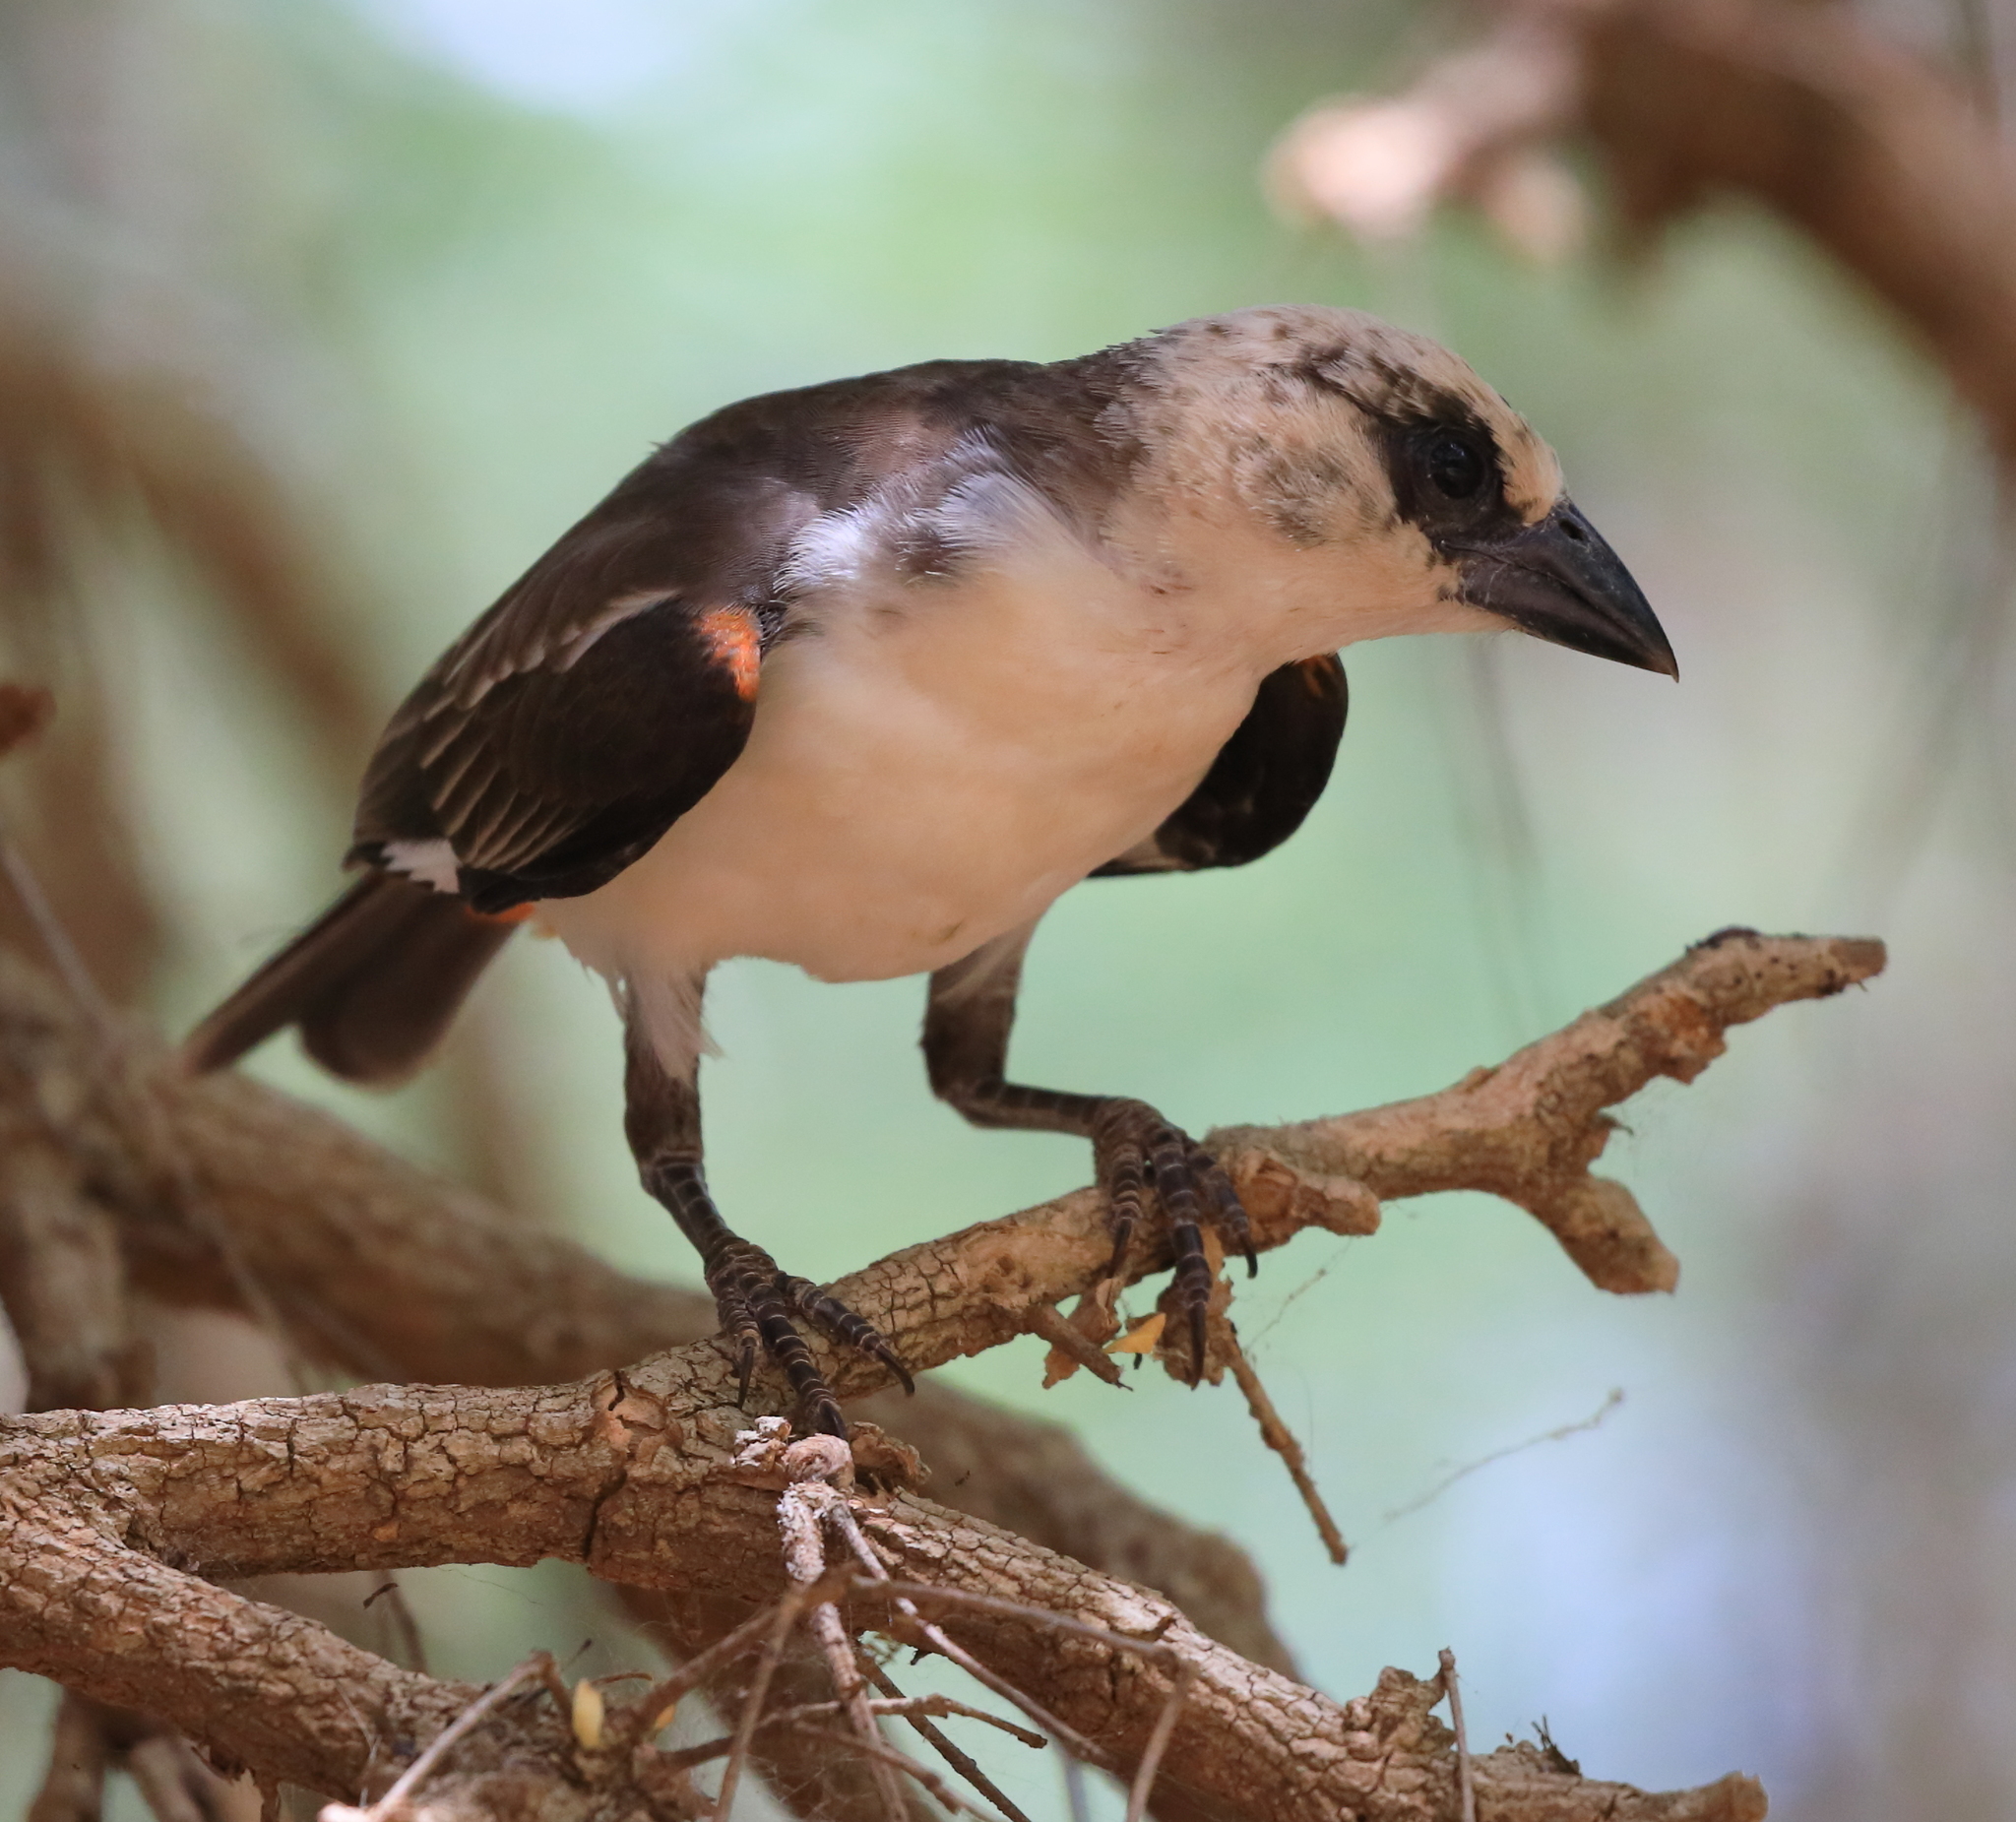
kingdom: Animalia
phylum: Chordata
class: Aves
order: Passeriformes
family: Ploceidae
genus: Dinemellia
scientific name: Dinemellia dinemelli
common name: White-headed buffalo weaver
